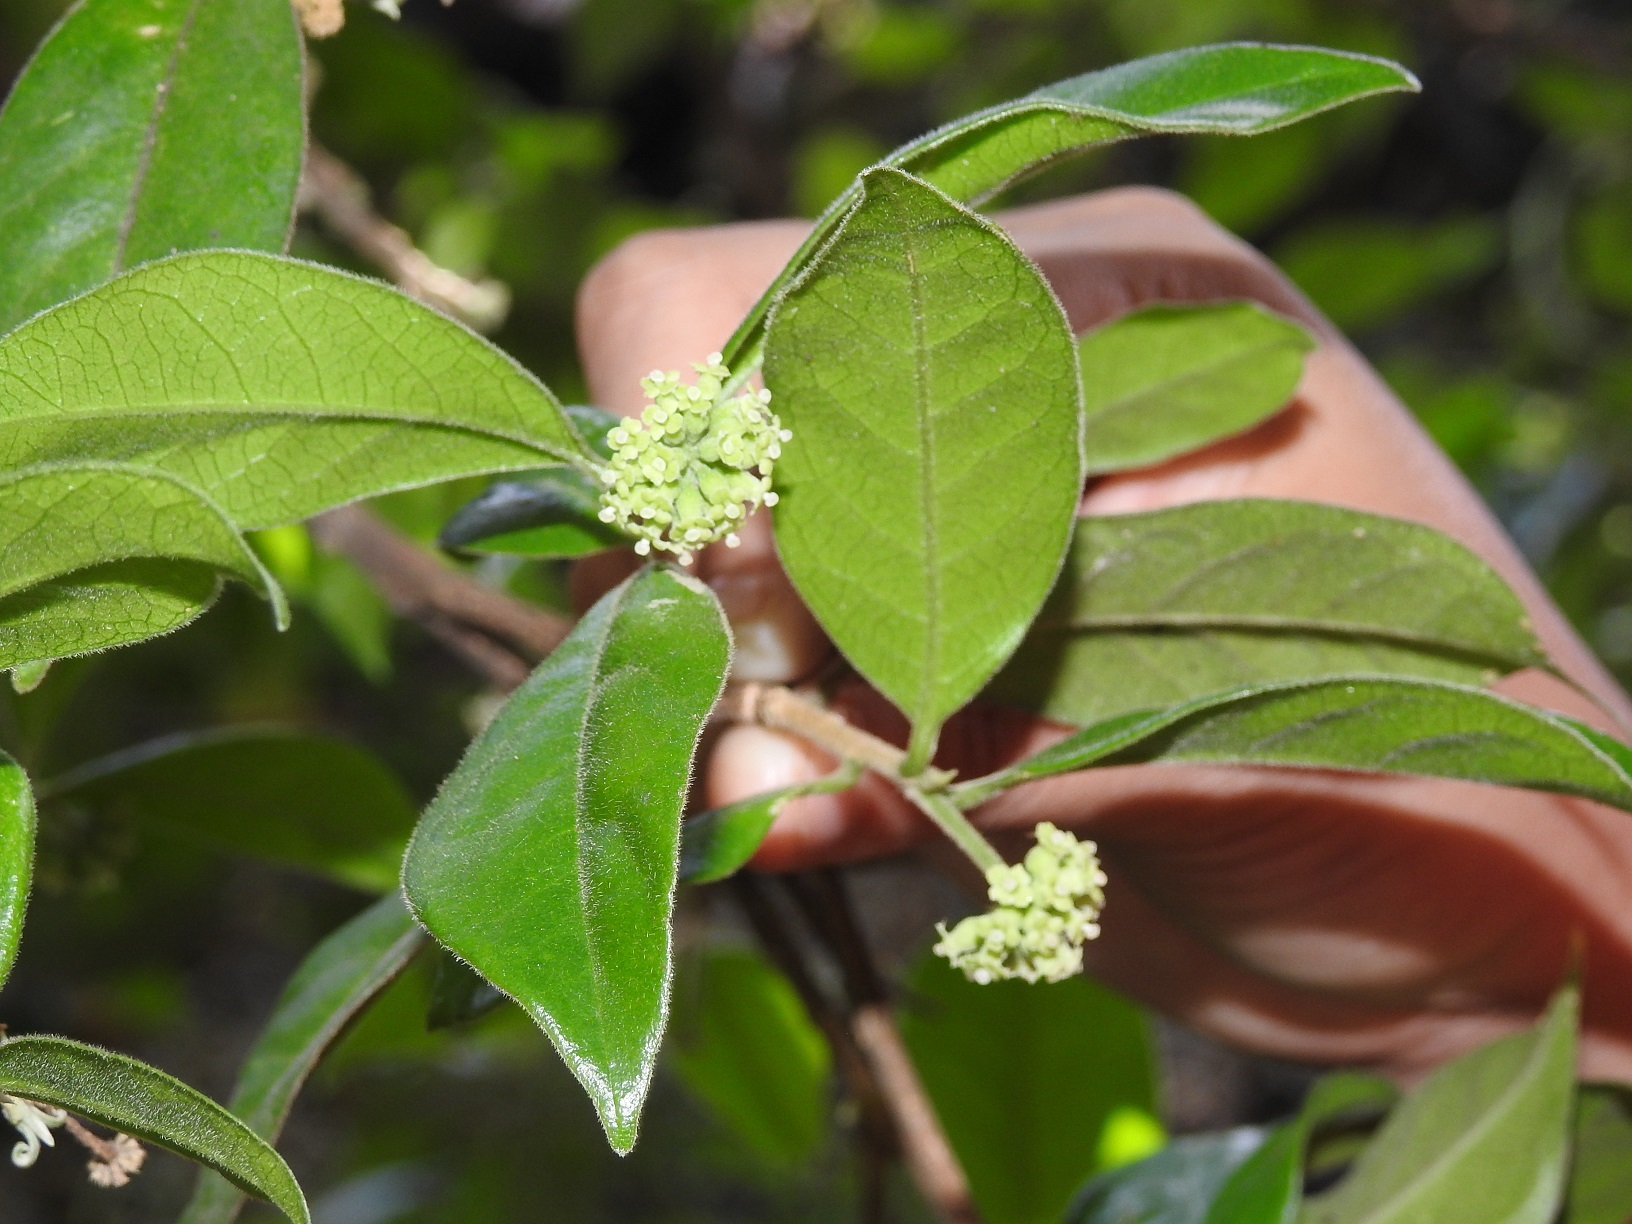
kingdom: Plantae
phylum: Tracheophyta
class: Magnoliopsida
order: Malvales
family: Thymelaeaceae
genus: Daphnopsis
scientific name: Daphnopsis selerorum
